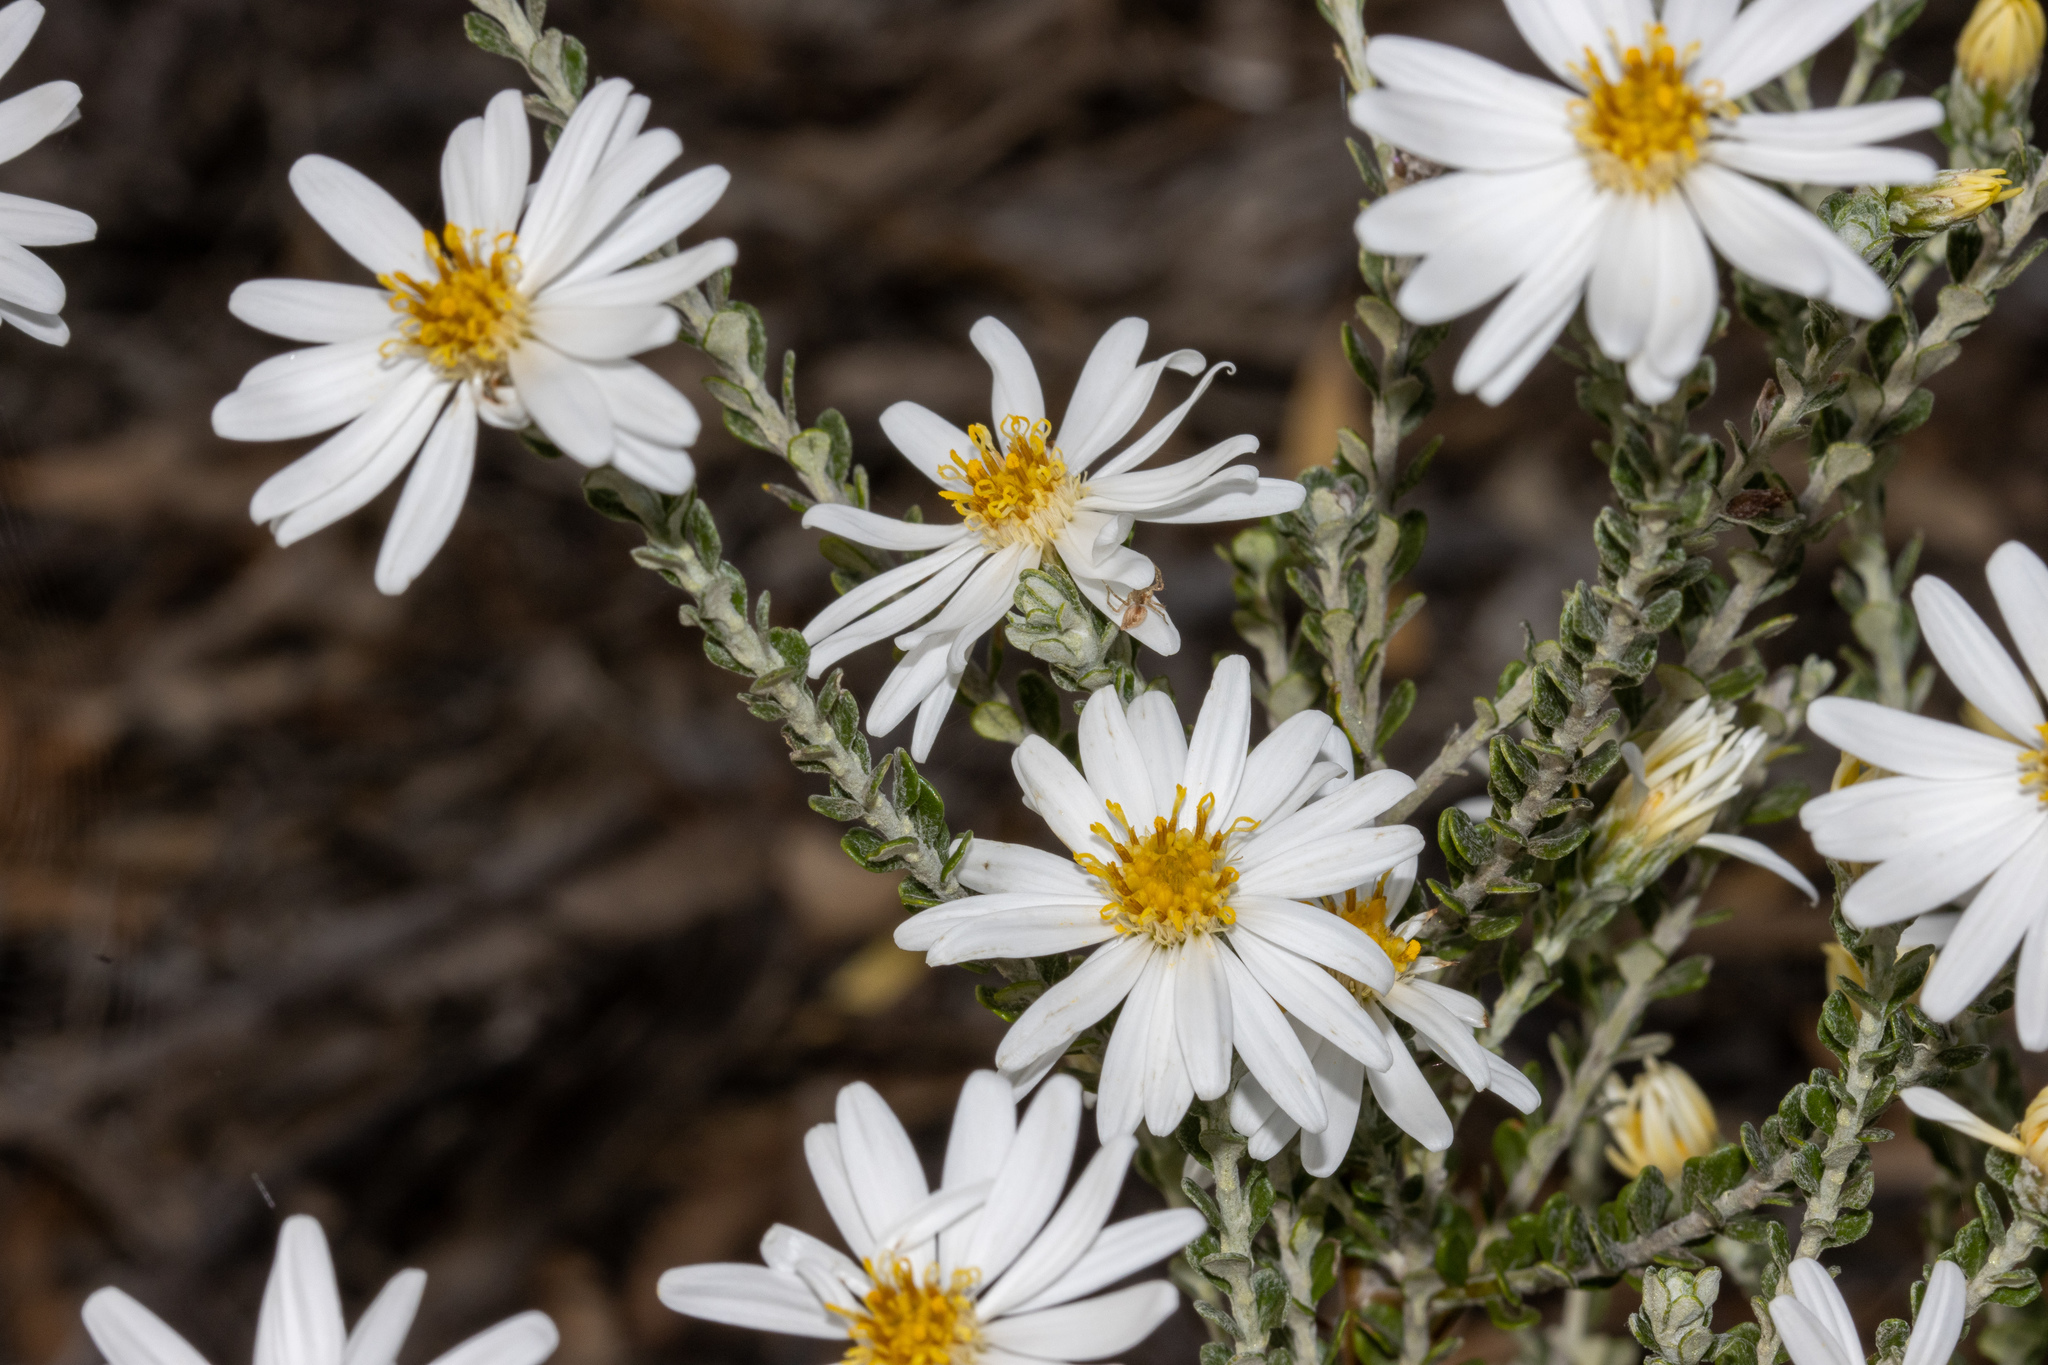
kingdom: Plantae
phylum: Tracheophyta
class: Magnoliopsida
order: Asterales
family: Asteraceae
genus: Olearia
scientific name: Olearia pimeleoides
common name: Showy daisybush
